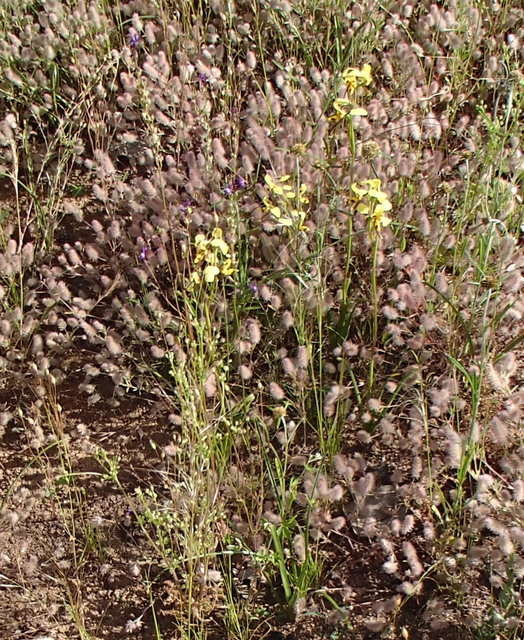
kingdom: Plantae
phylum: Tracheophyta
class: Liliopsida
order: Asparagales
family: Orchidaceae
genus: Diuris
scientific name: Diuris sulphurea
